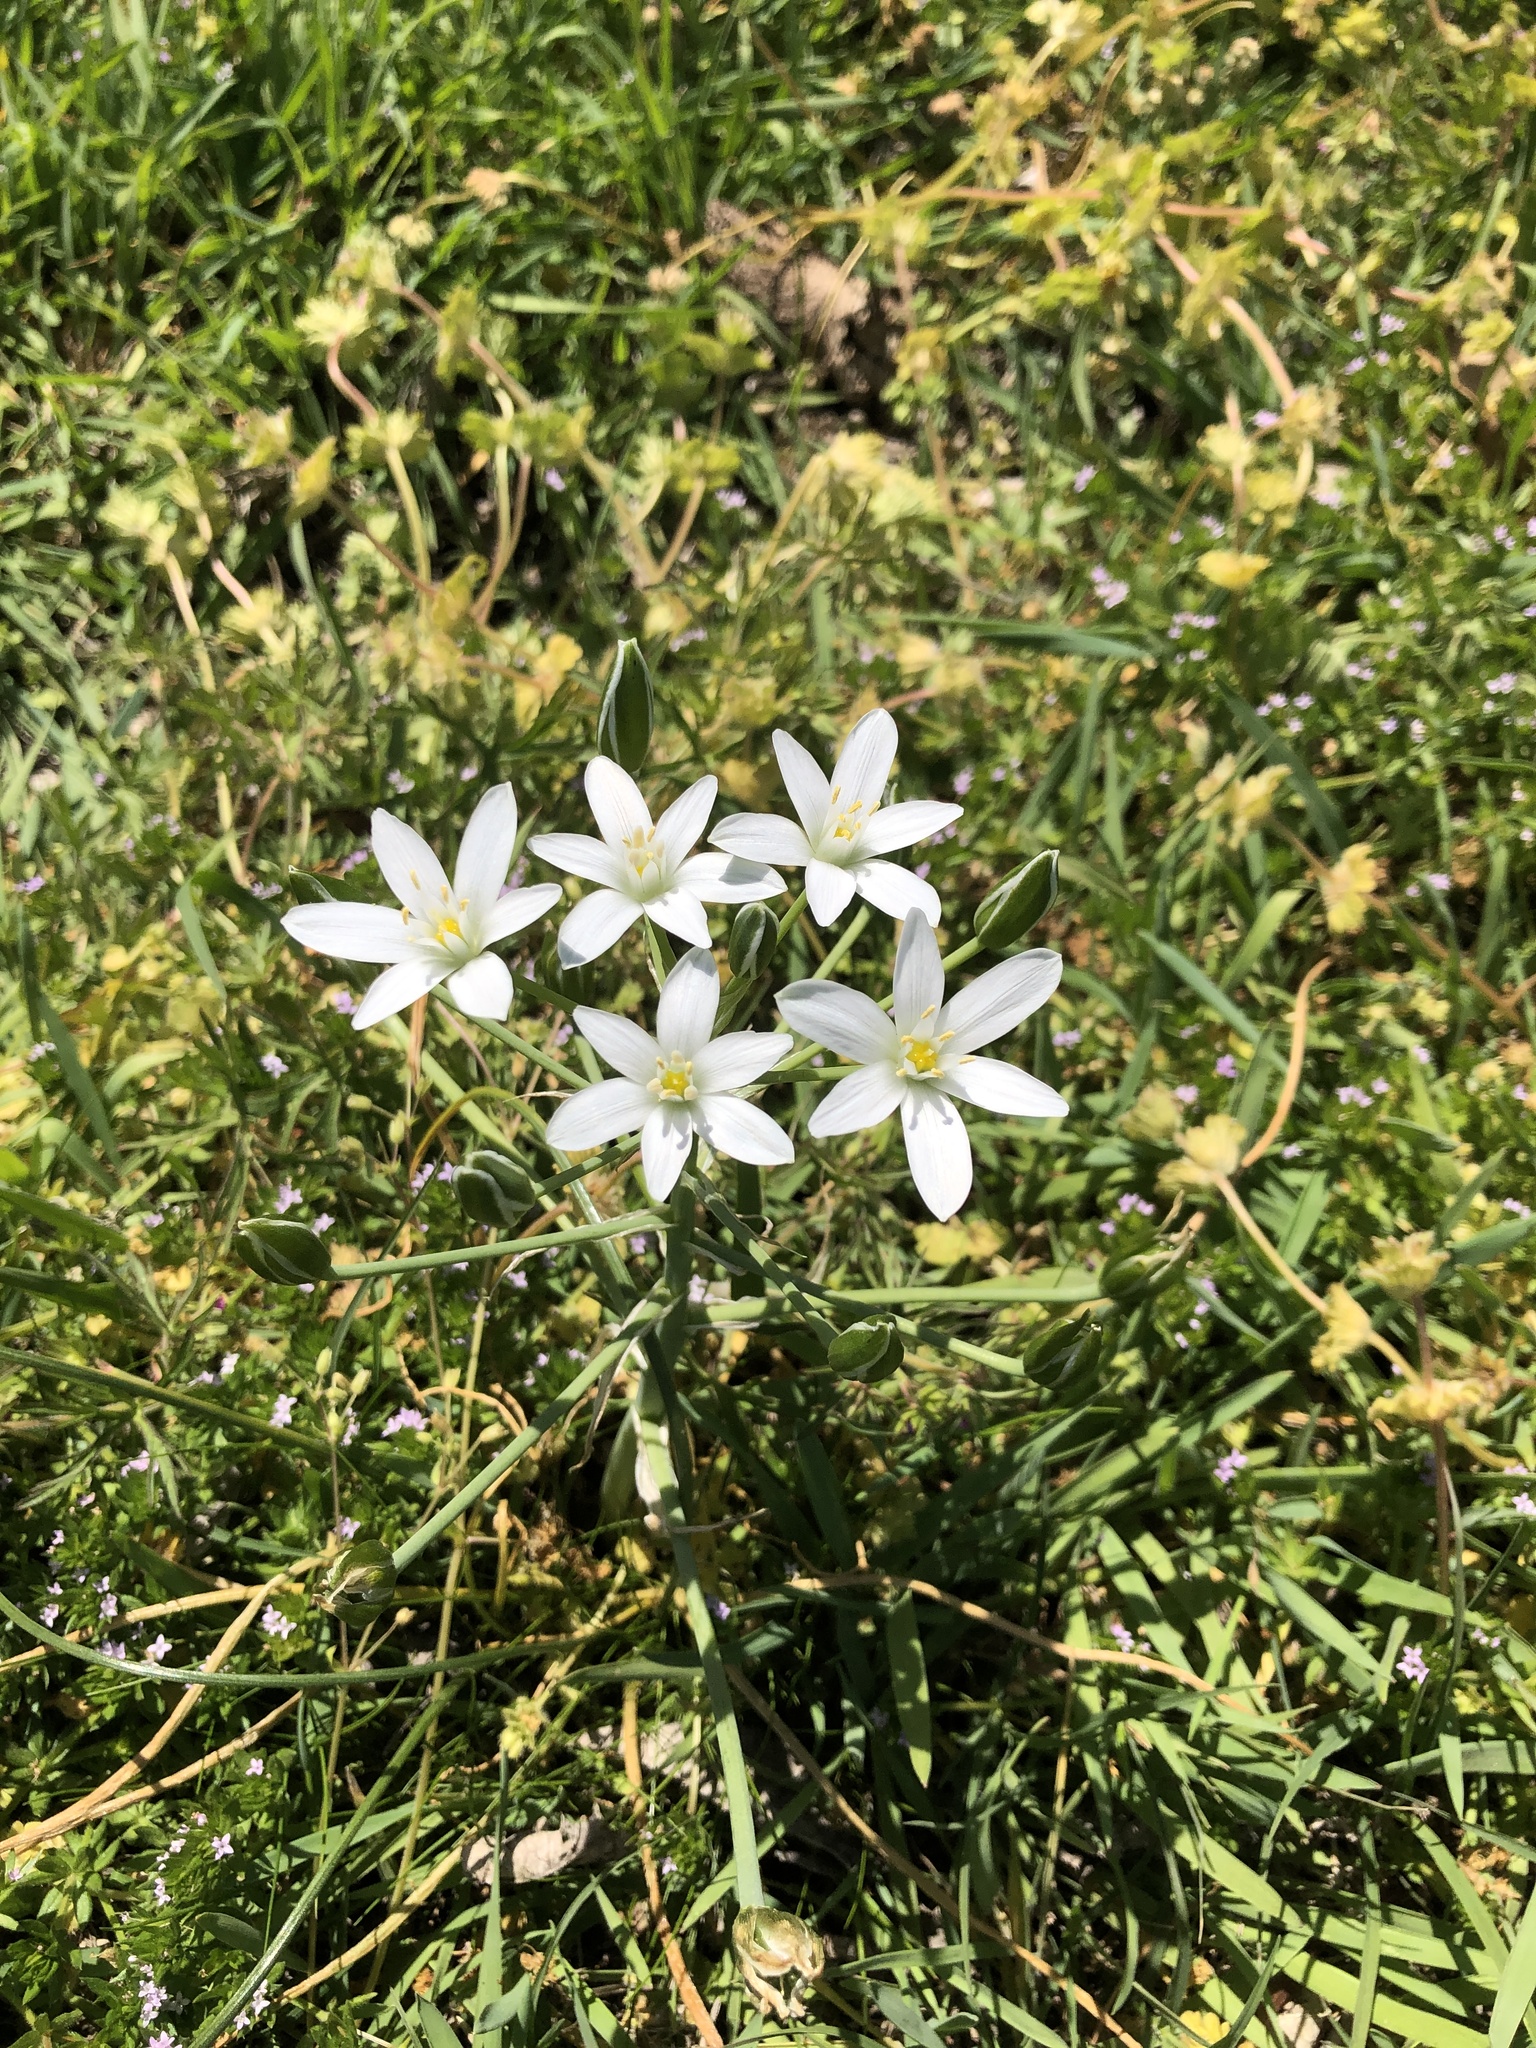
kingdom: Plantae
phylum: Tracheophyta
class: Liliopsida
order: Asparagales
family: Asparagaceae
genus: Ornithogalum
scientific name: Ornithogalum umbellatum
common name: Garden star-of-bethlehem
